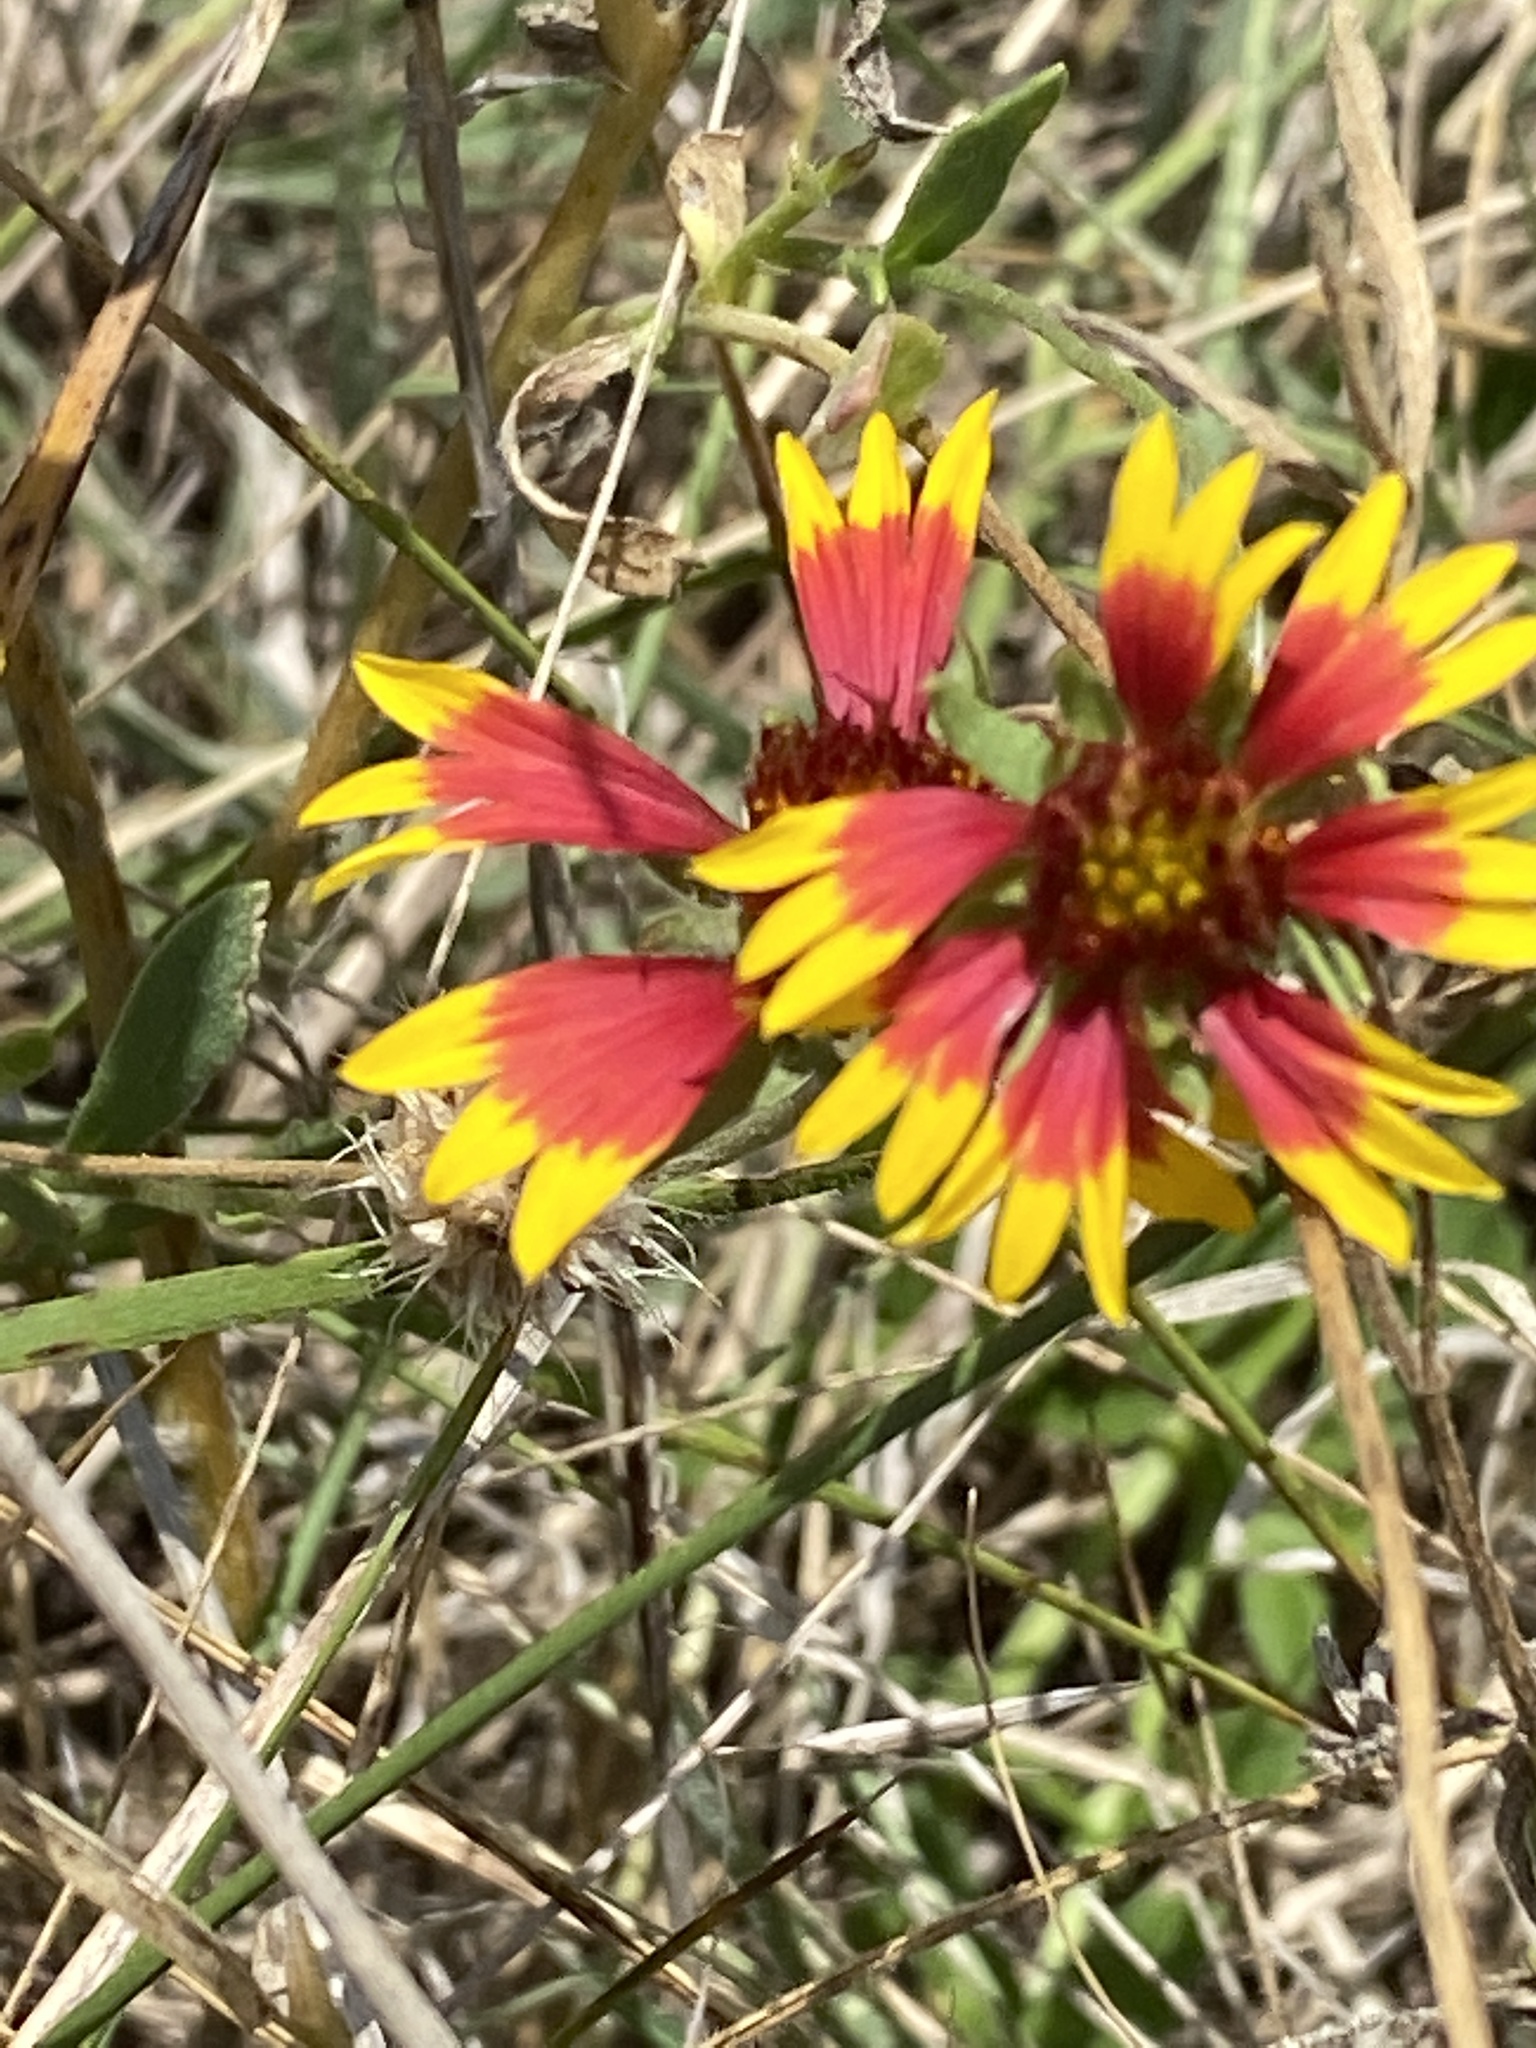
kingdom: Plantae
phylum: Tracheophyta
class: Magnoliopsida
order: Asterales
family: Asteraceae
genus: Gaillardia
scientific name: Gaillardia pulchella
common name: Firewheel
